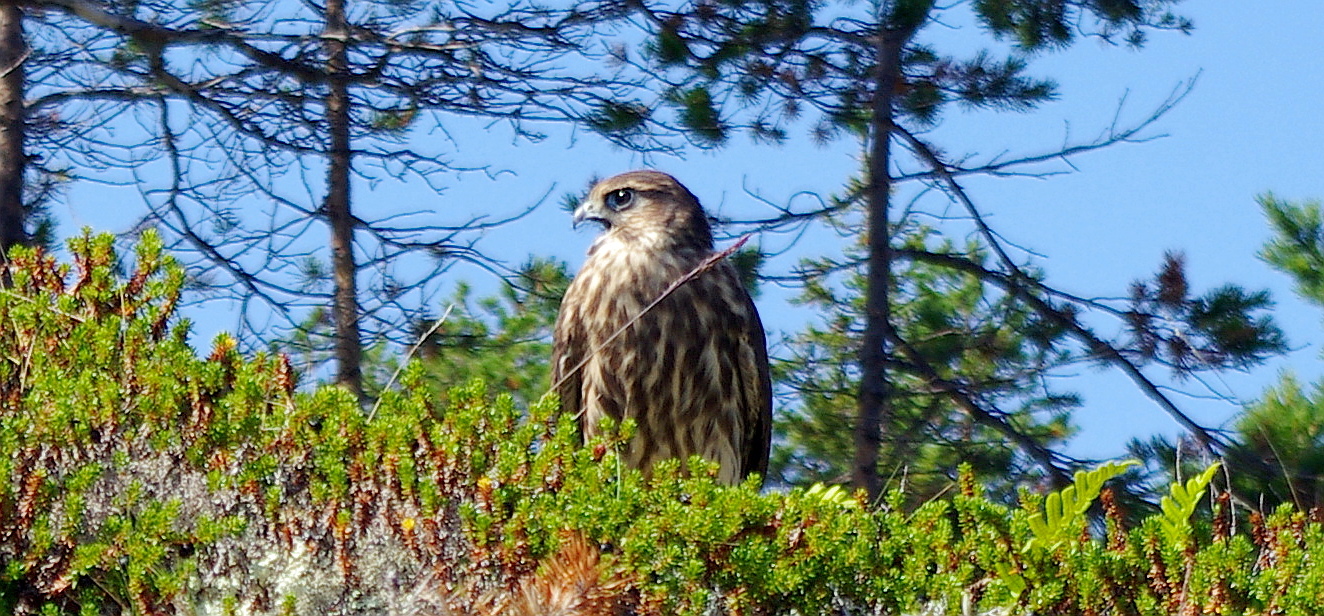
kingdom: Animalia
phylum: Chordata
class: Aves
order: Falconiformes
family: Falconidae
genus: Falco
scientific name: Falco columbarius
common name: Merlin
